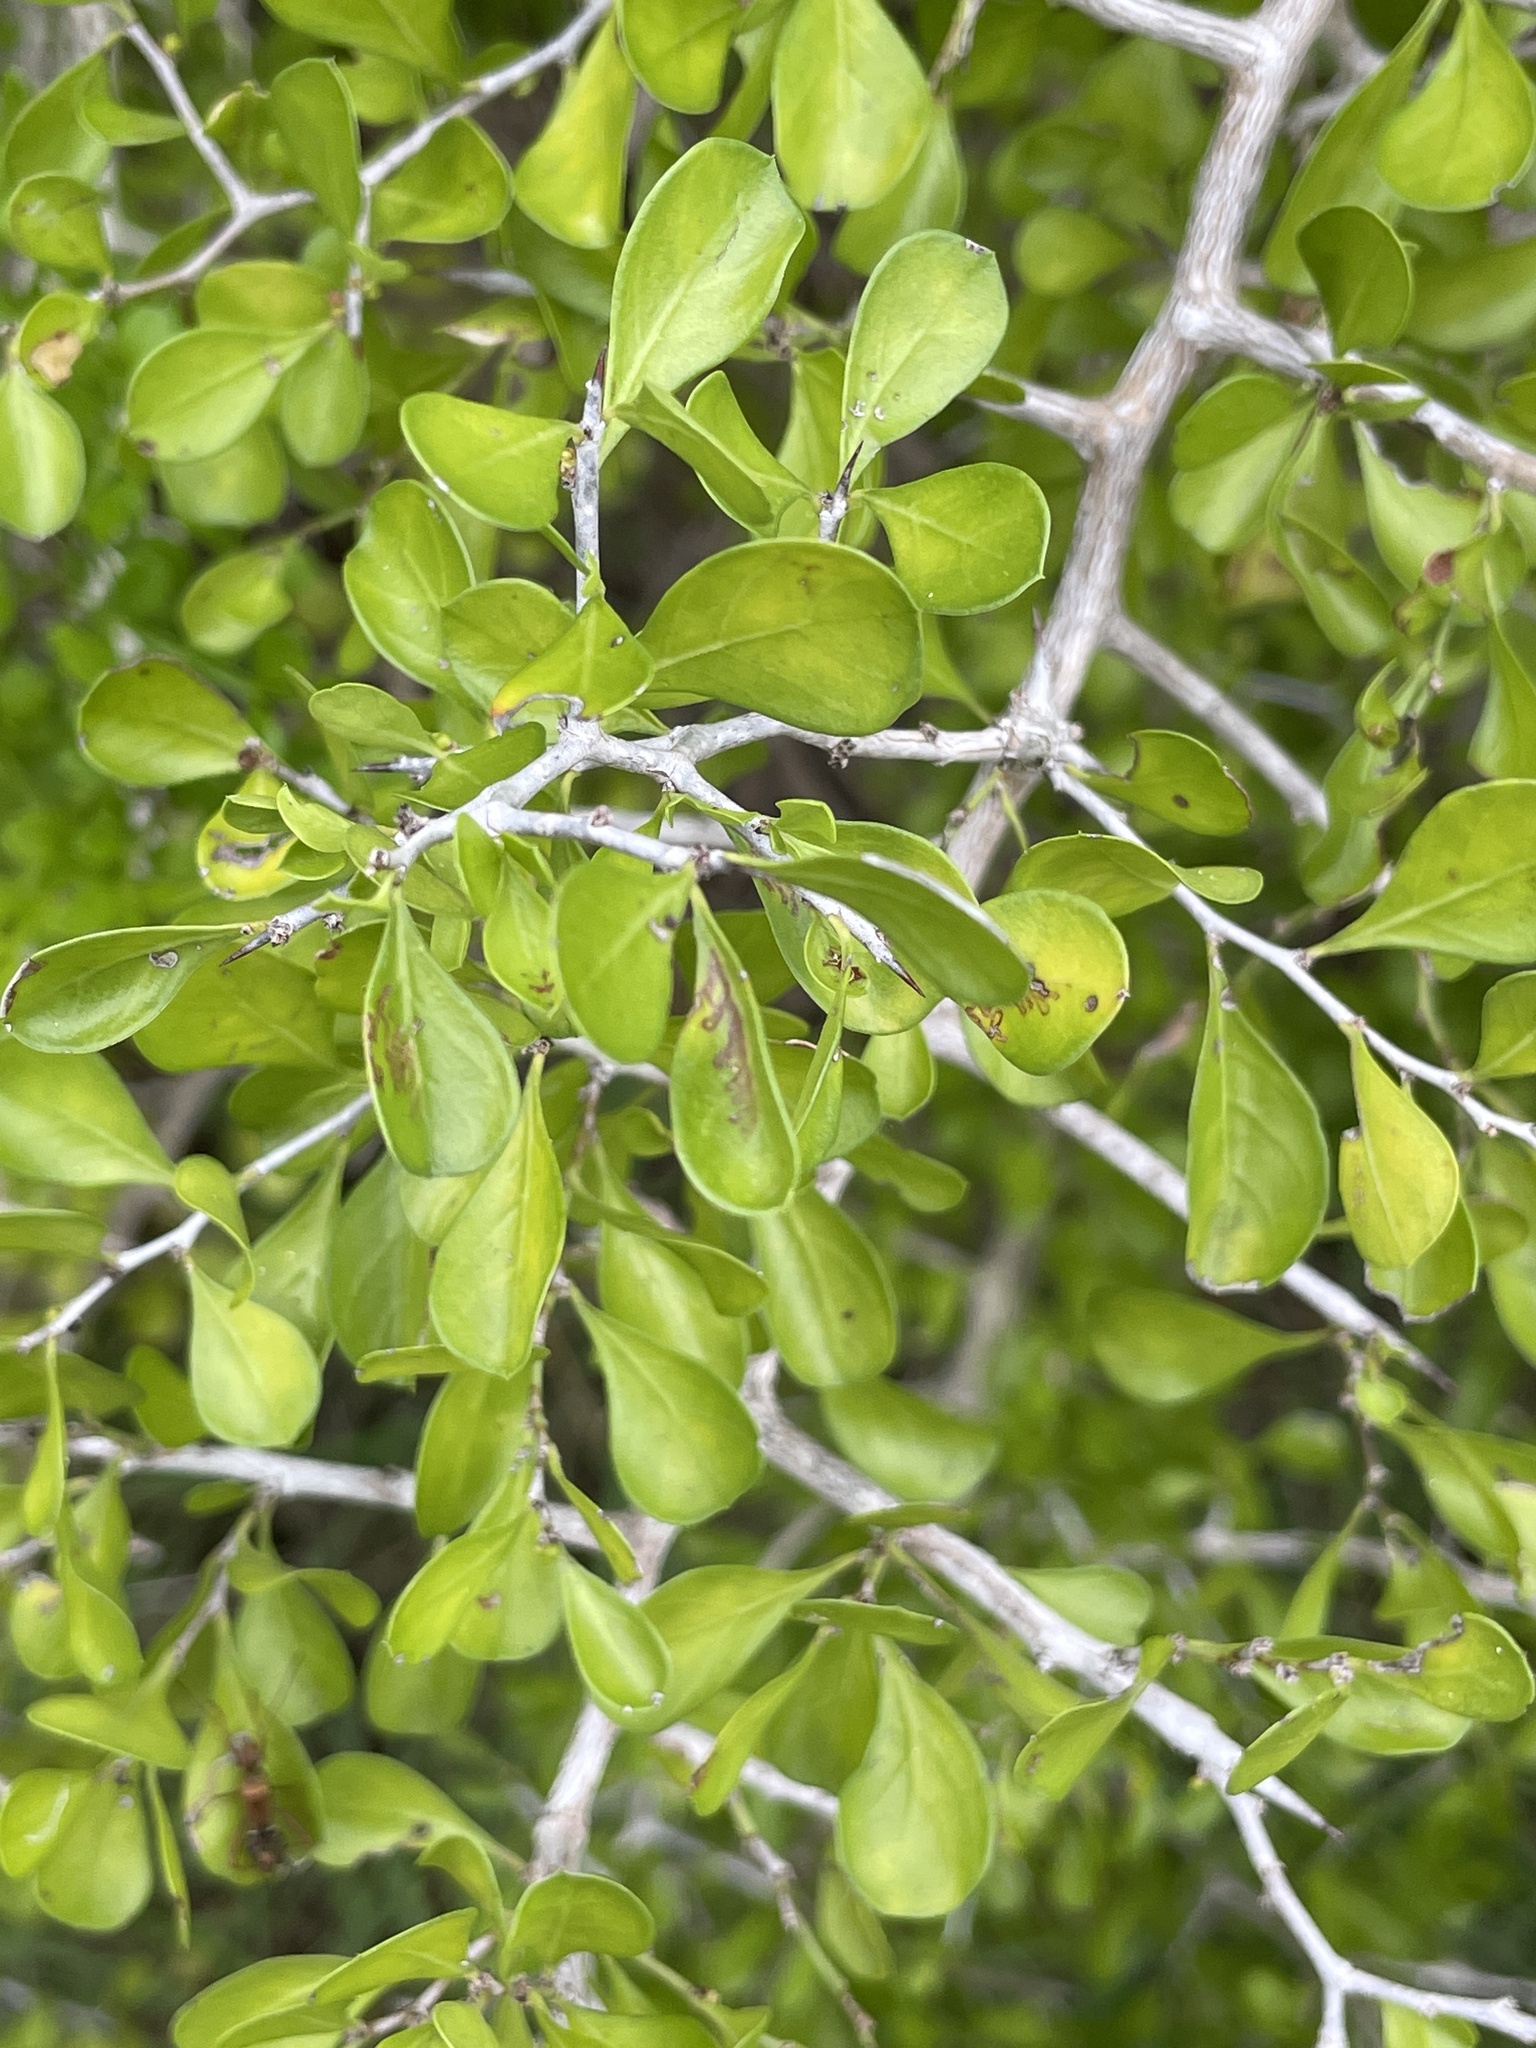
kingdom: Plantae
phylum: Tracheophyta
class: Magnoliopsida
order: Rosales
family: Rhamnaceae
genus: Condalia
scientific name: Condalia hookeri
